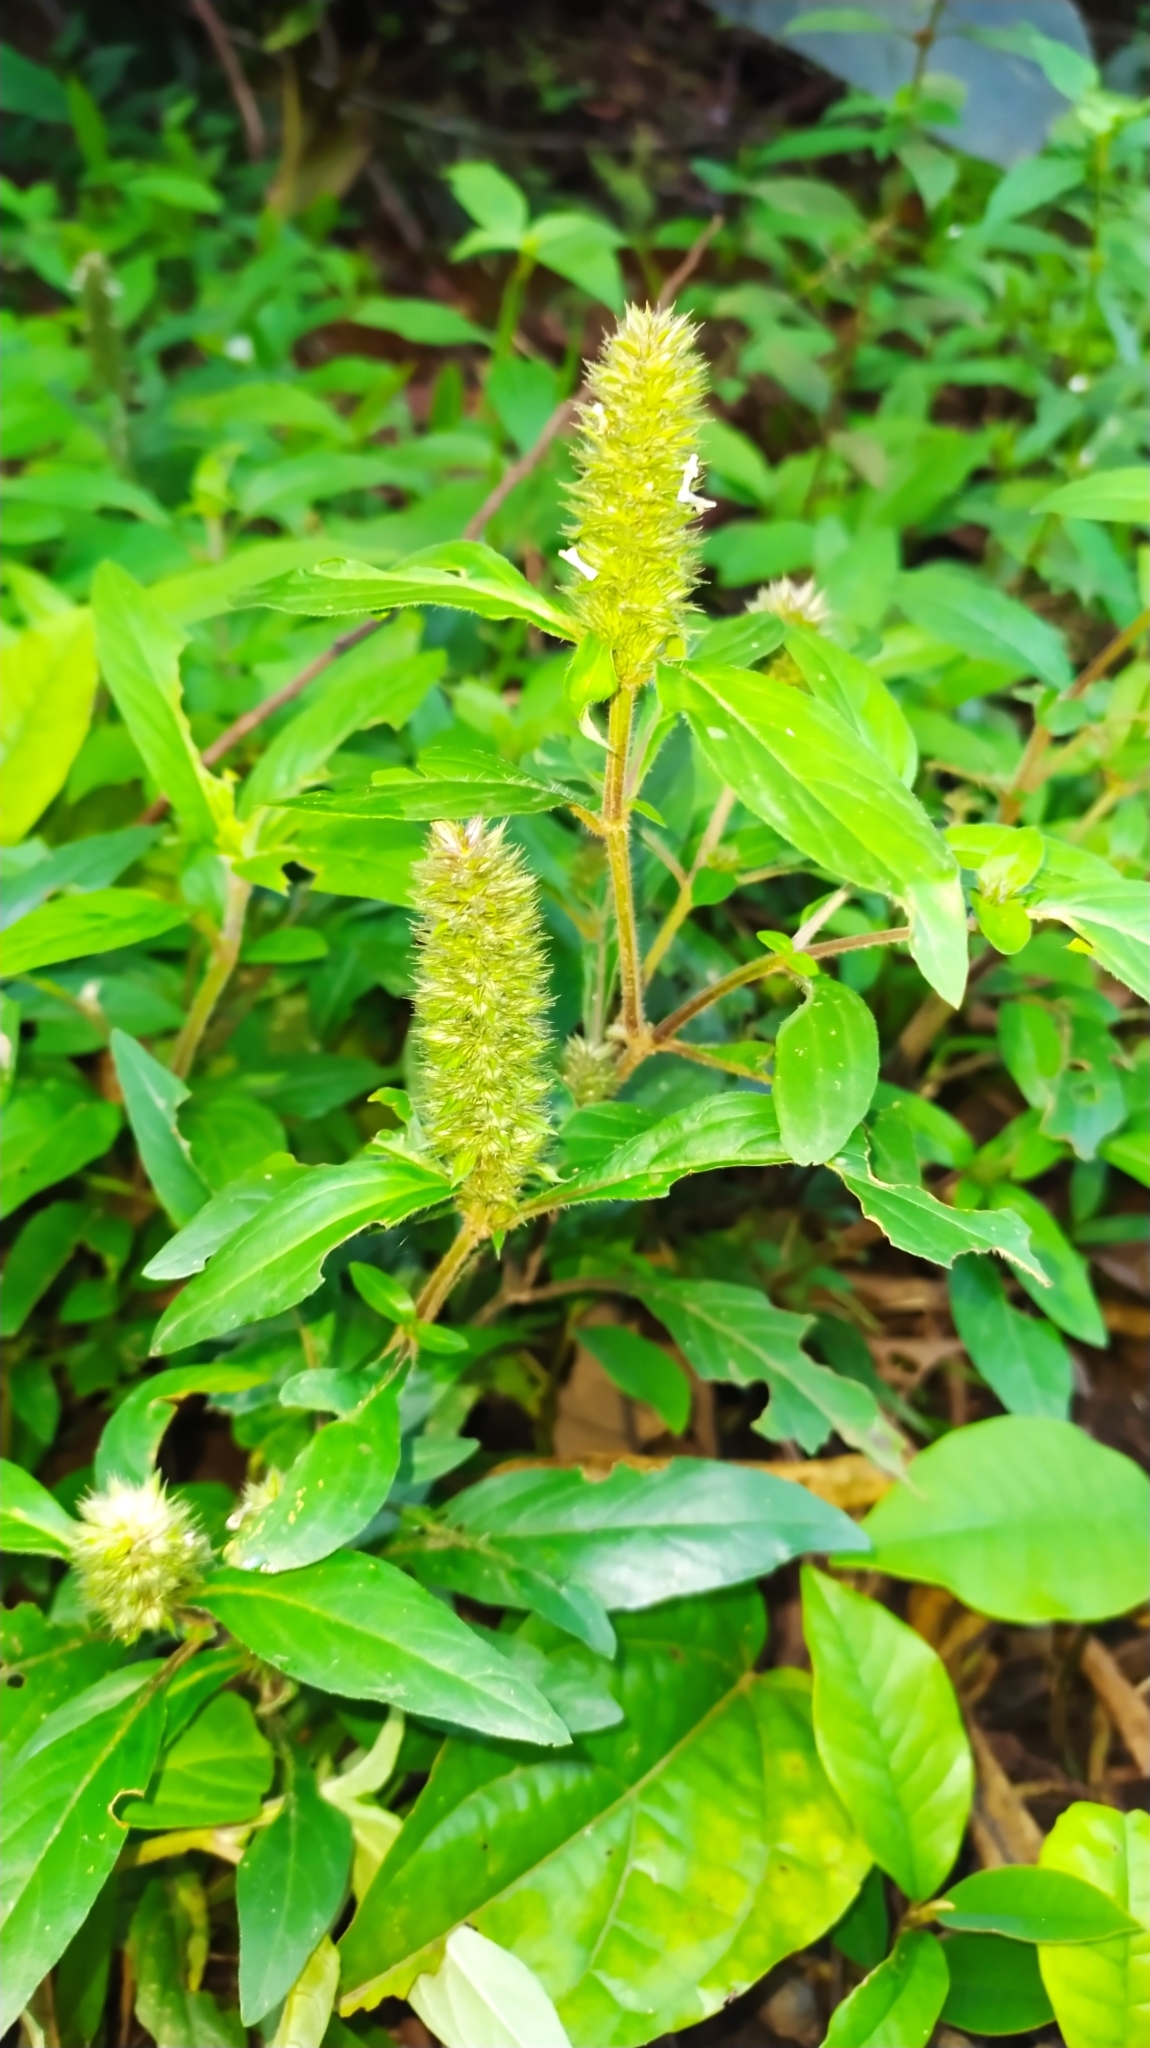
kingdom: Plantae
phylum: Tracheophyta
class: Magnoliopsida
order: Lamiales
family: Acanthaceae
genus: Lepidagathis
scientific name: Lepidagathis alopecuroidea
